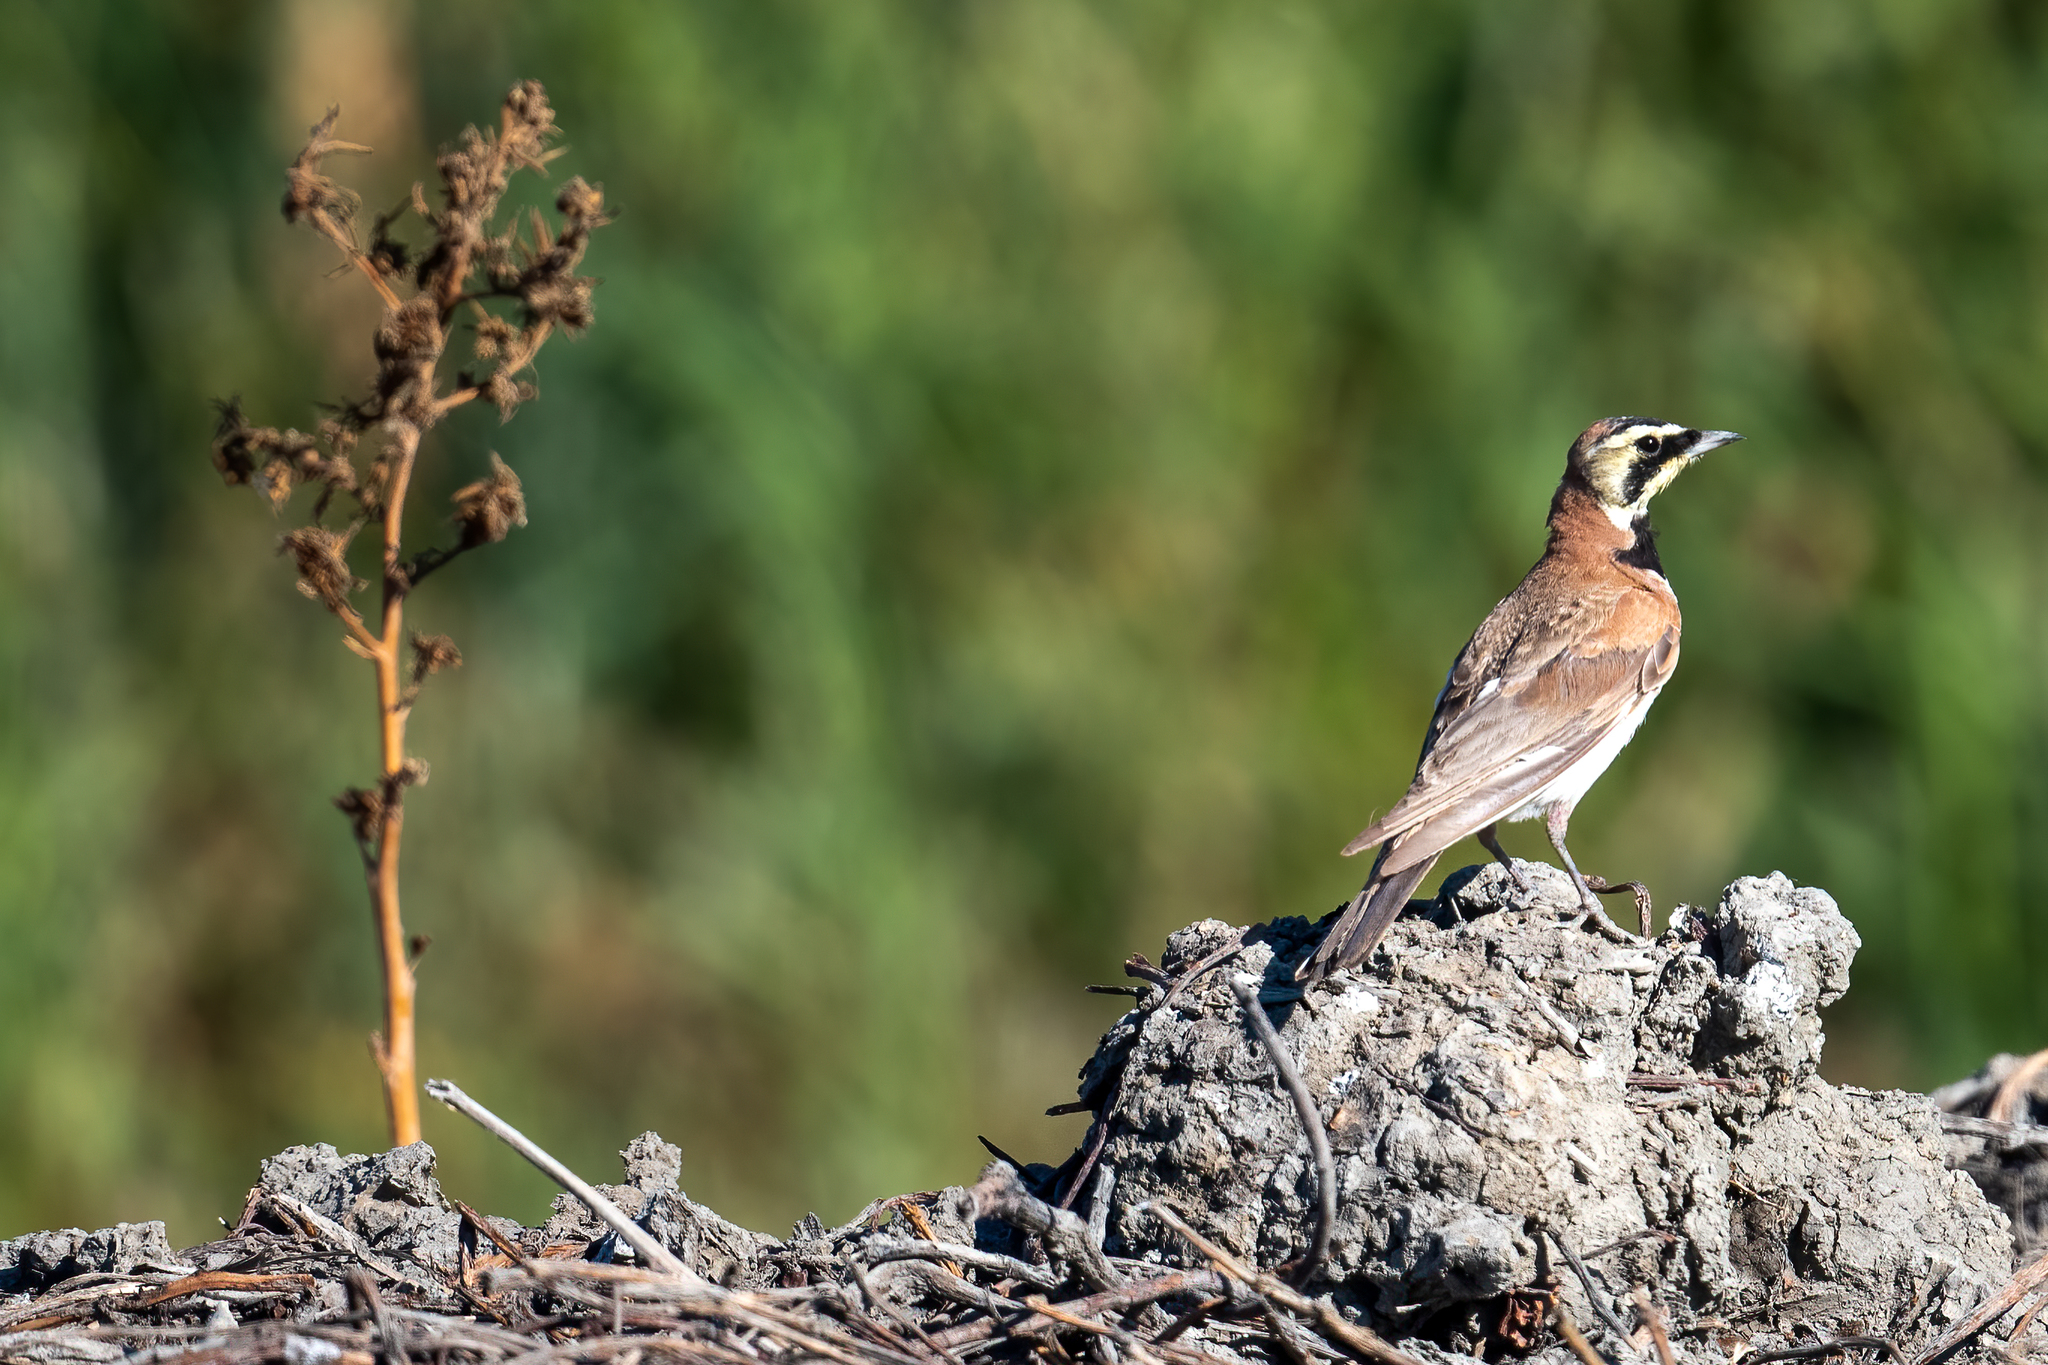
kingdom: Animalia
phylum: Chordata
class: Aves
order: Passeriformes
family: Alaudidae
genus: Eremophila
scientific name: Eremophila alpestris
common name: Horned lark
